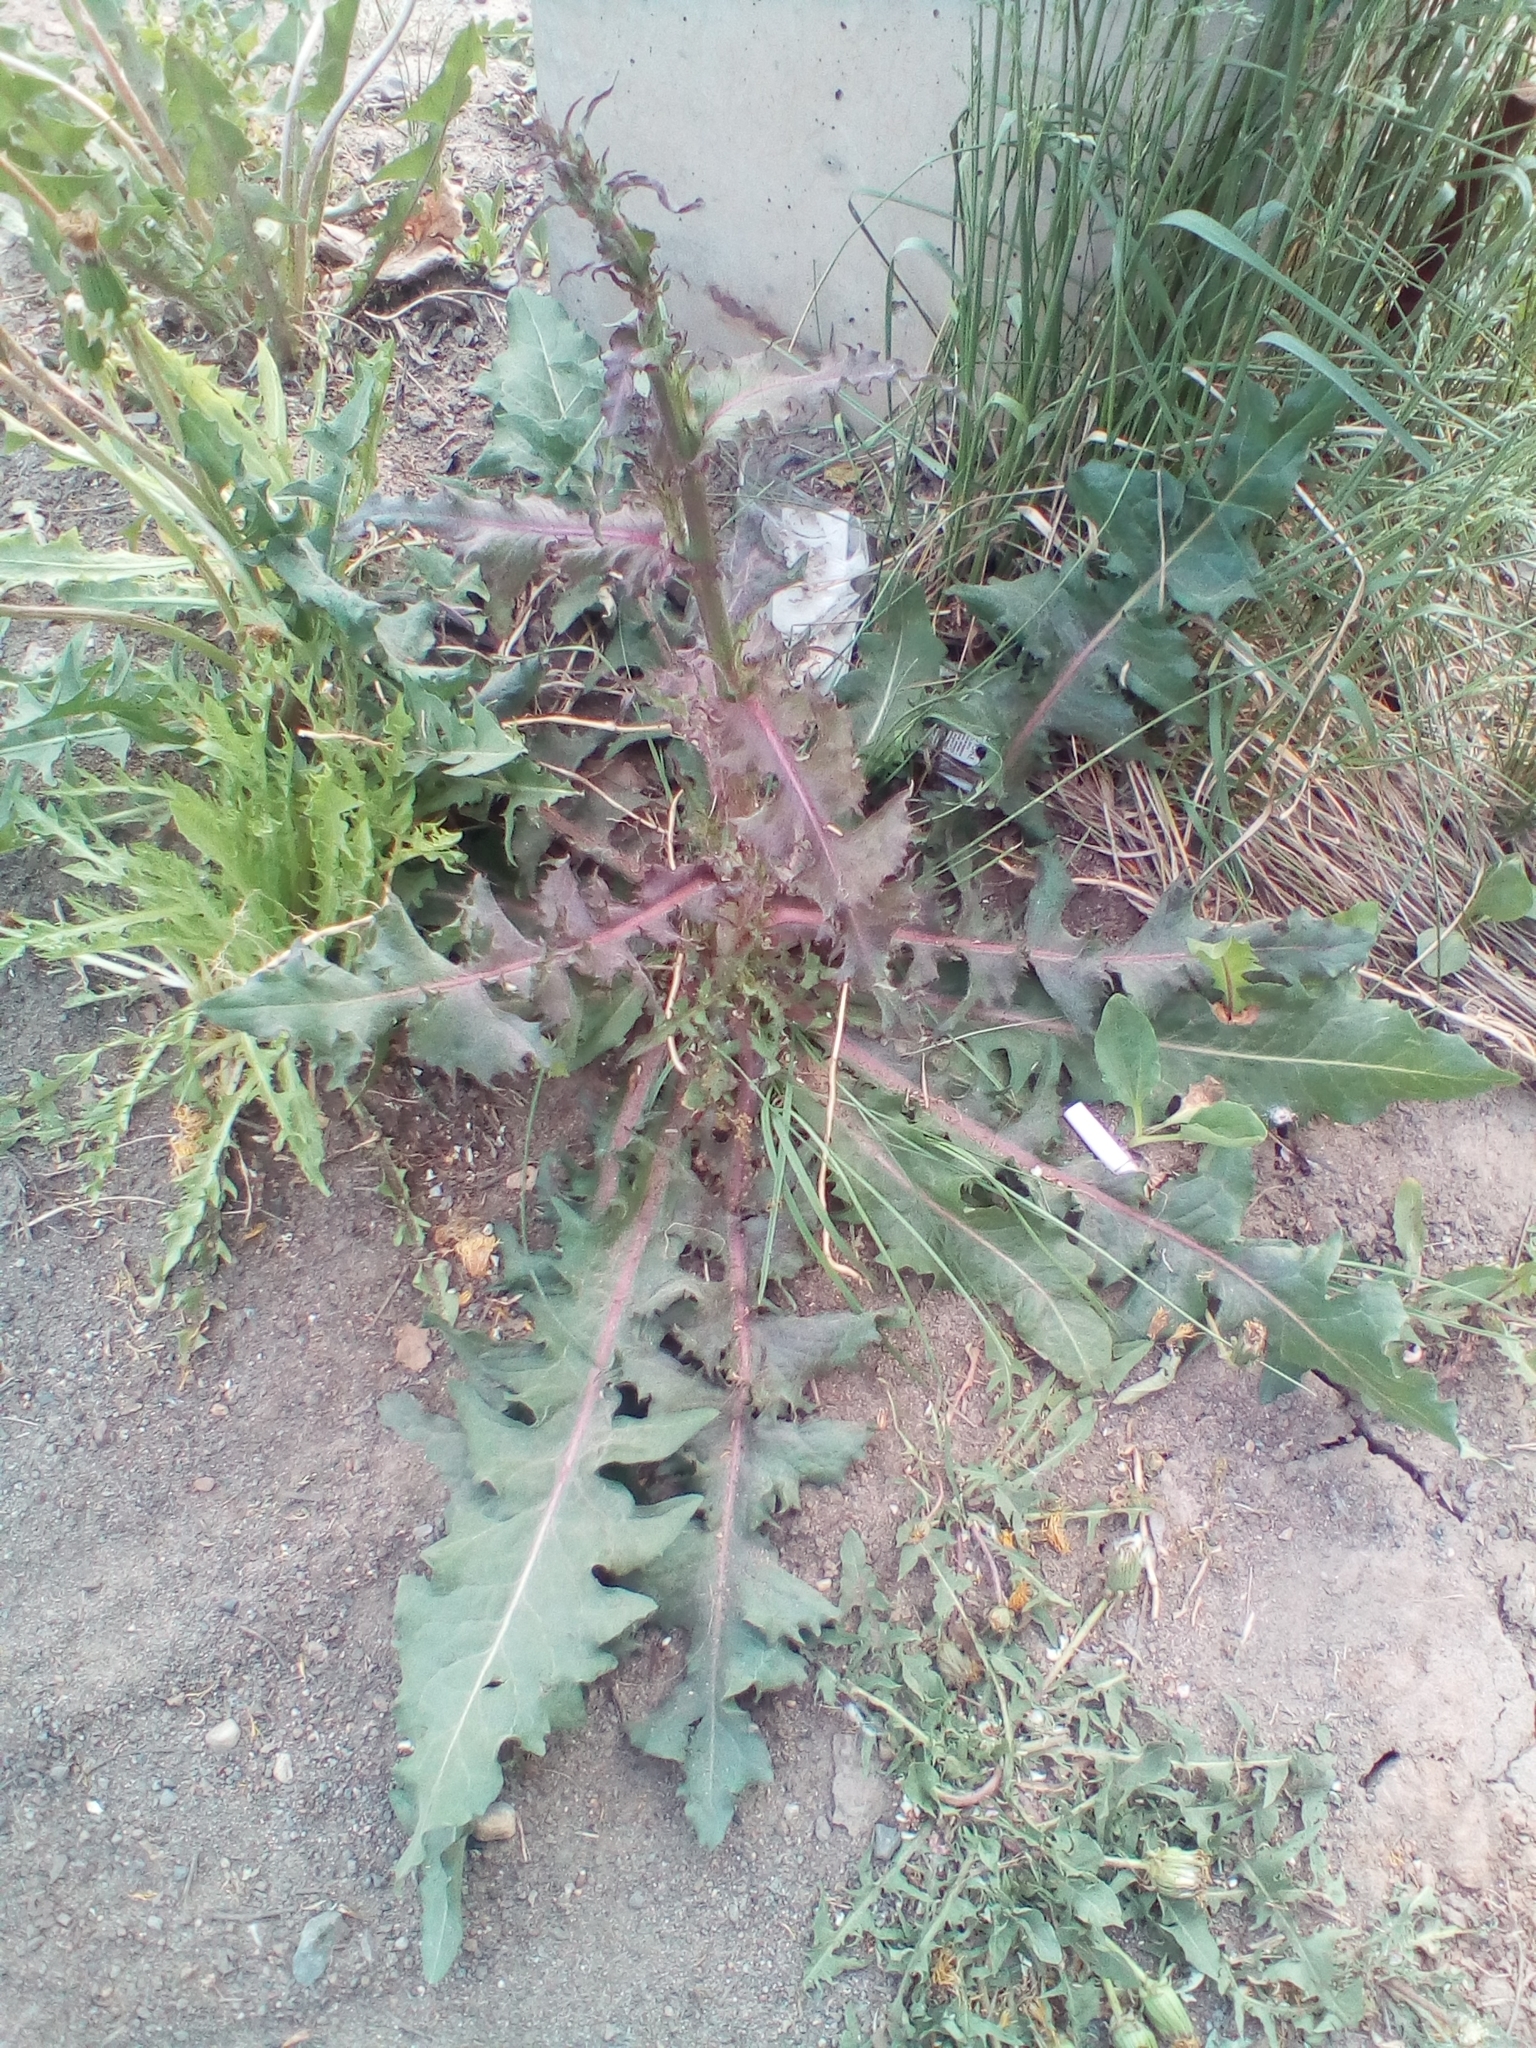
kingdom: Plantae
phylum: Tracheophyta
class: Magnoliopsida
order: Asterales
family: Asteraceae
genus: Cichorium
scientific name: Cichorium intybus
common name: Chicory
